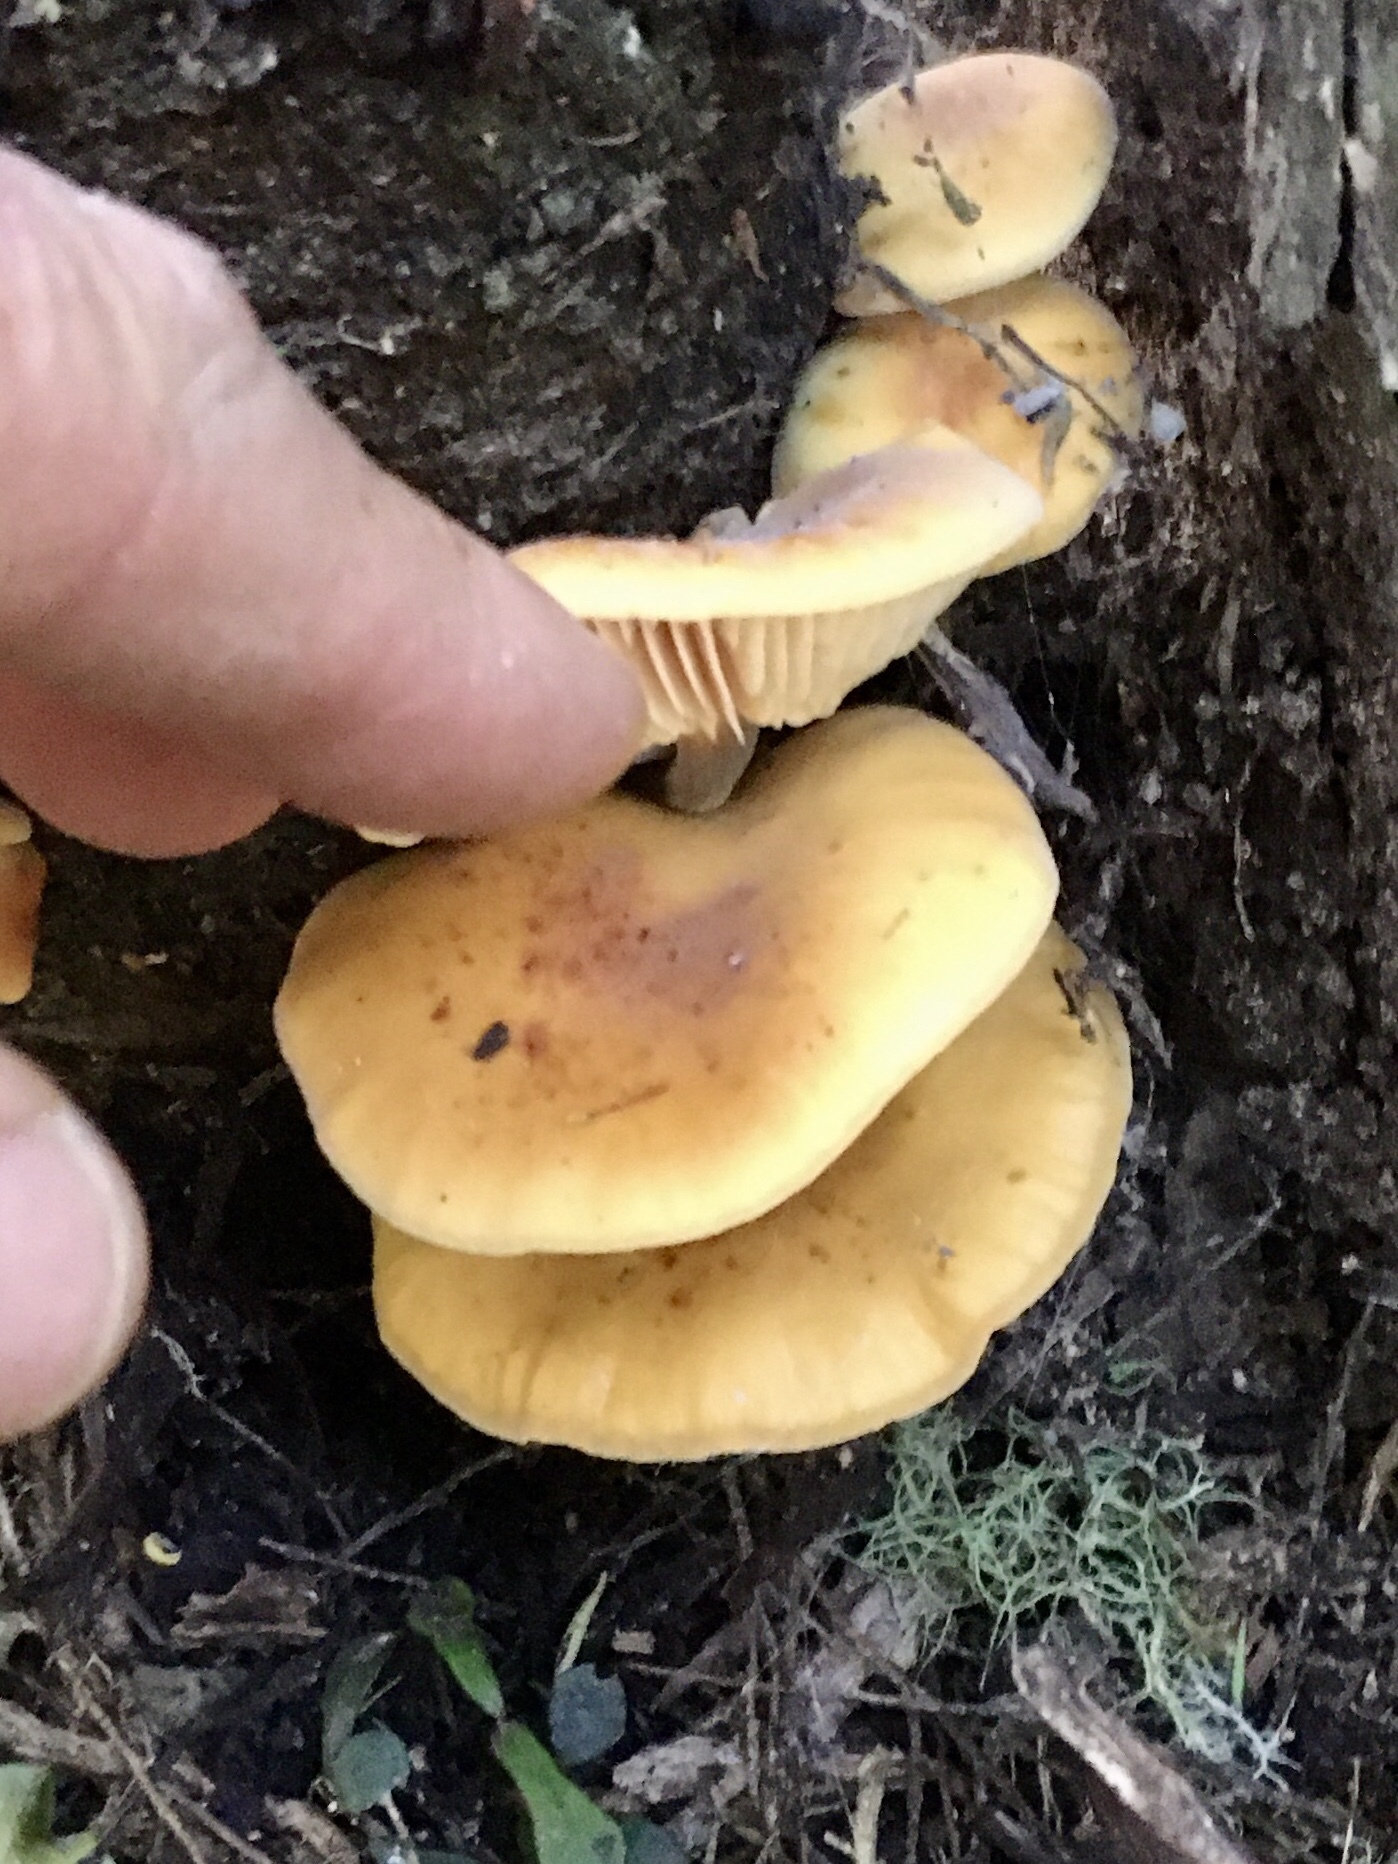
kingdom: Fungi
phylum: Basidiomycota
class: Agaricomycetes
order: Agaricales
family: Physalacriaceae
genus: Flammulina
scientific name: Flammulina velutipes
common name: Velvet shank
